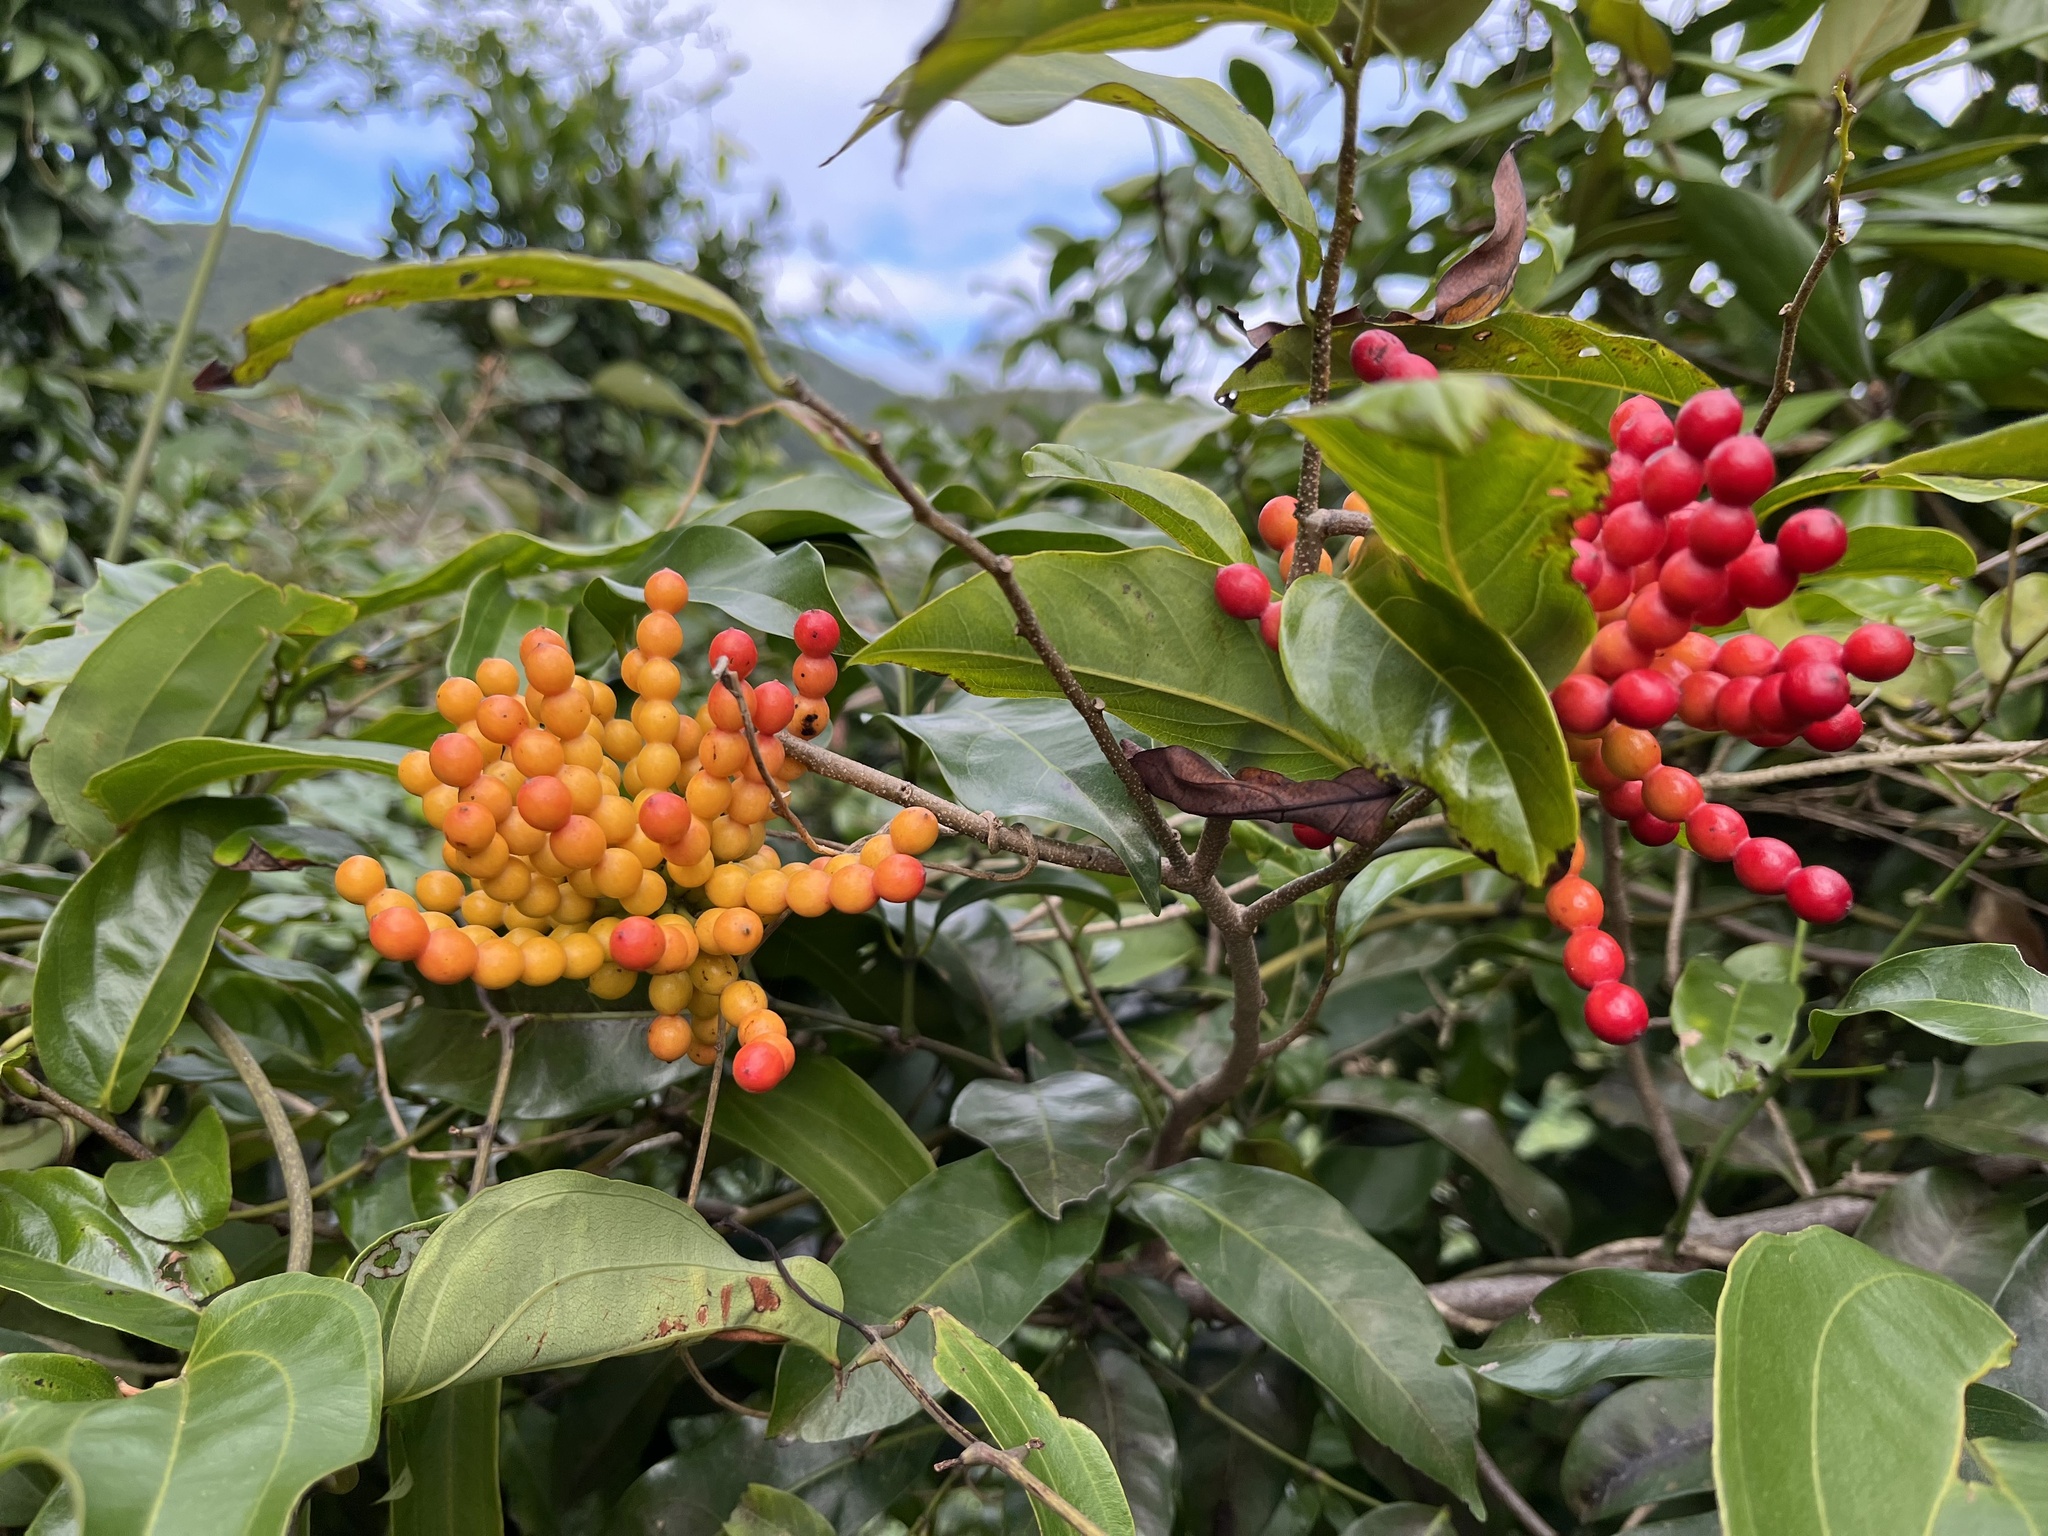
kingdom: Plantae
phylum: Tracheophyta
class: Magnoliopsida
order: Magnoliales
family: Annonaceae
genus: Desmos
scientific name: Desmos chinensis
